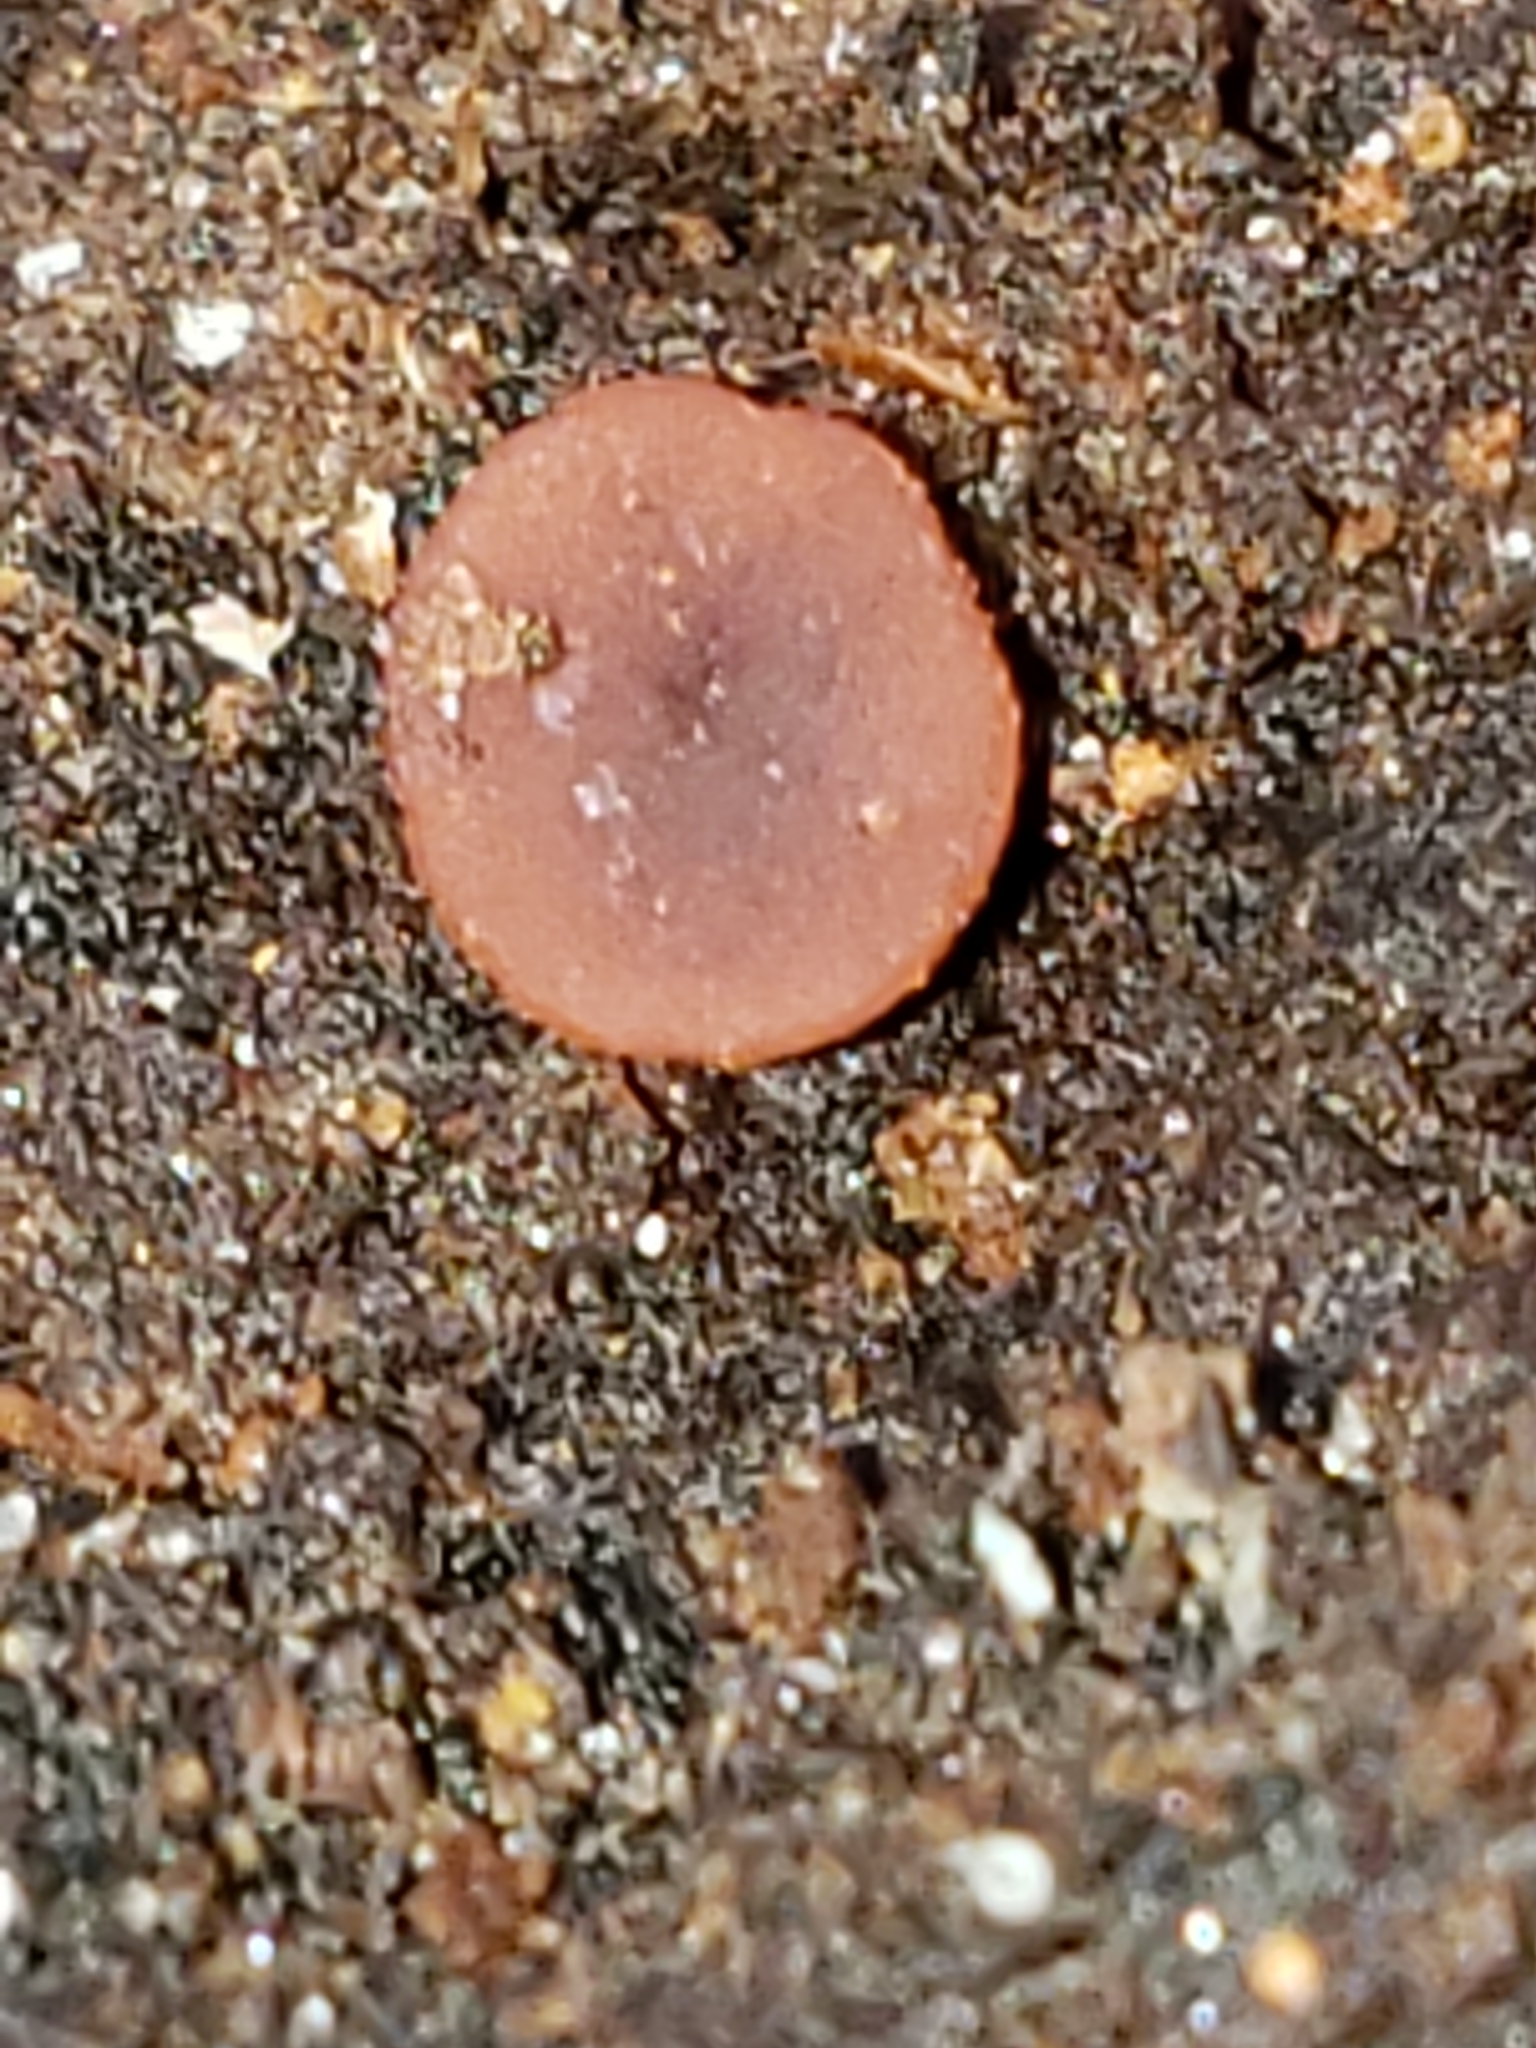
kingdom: Fungi
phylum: Ascomycota
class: Leotiomycetes
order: Helotiales
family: Gelatinodiscaceae
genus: Ascocoryne
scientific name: Ascocoryne sarcoides
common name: Purple jellydisc
